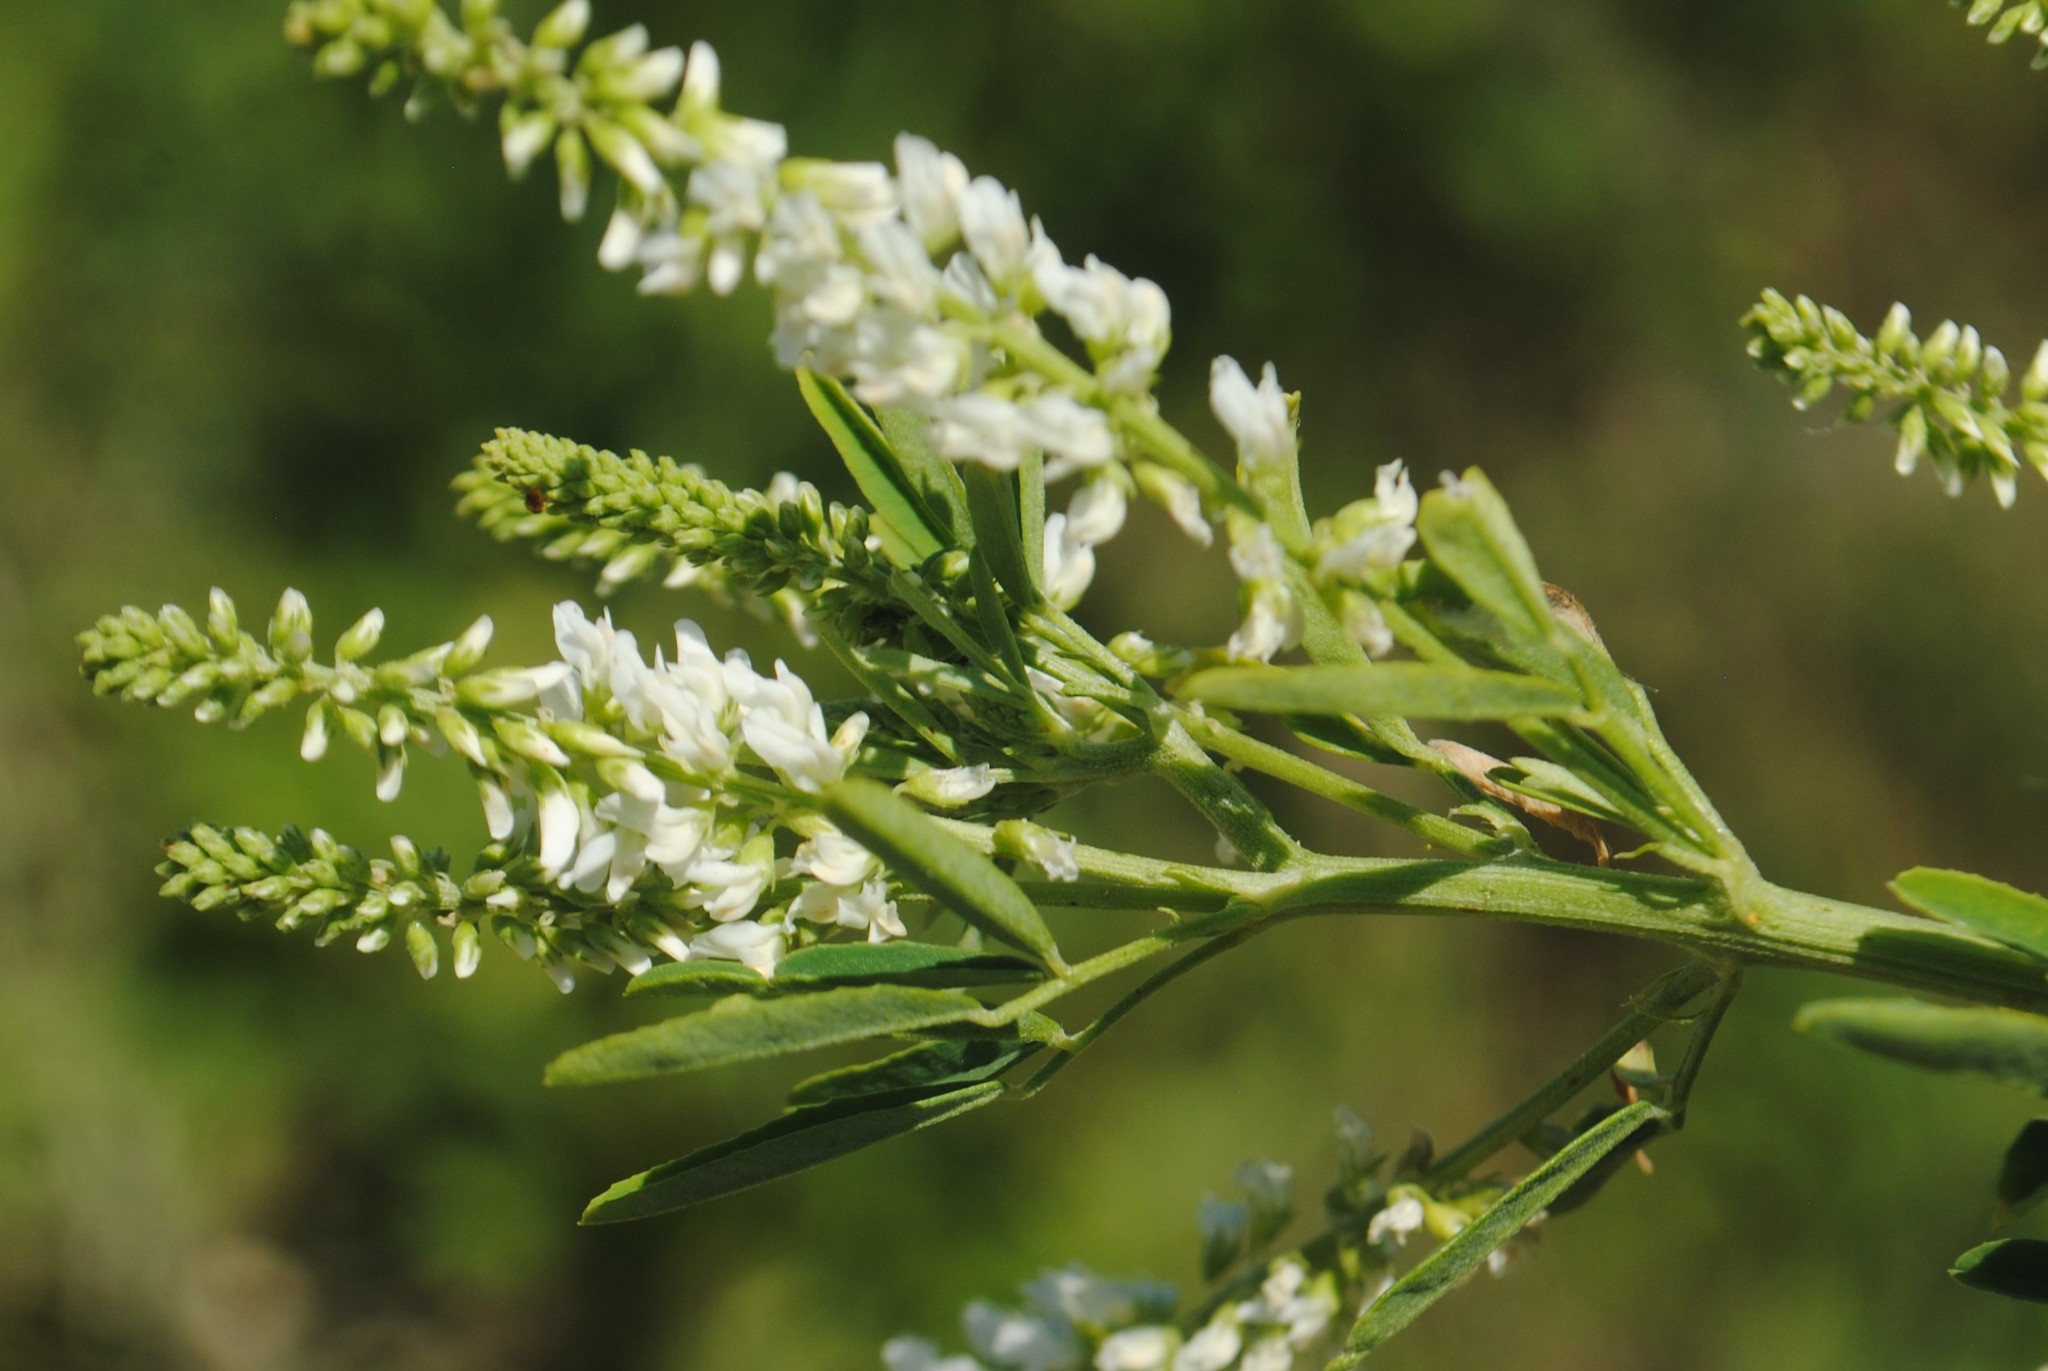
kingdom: Plantae
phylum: Tracheophyta
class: Magnoliopsida
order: Fabales
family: Fabaceae
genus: Melilotus
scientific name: Melilotus albus
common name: White melilot
